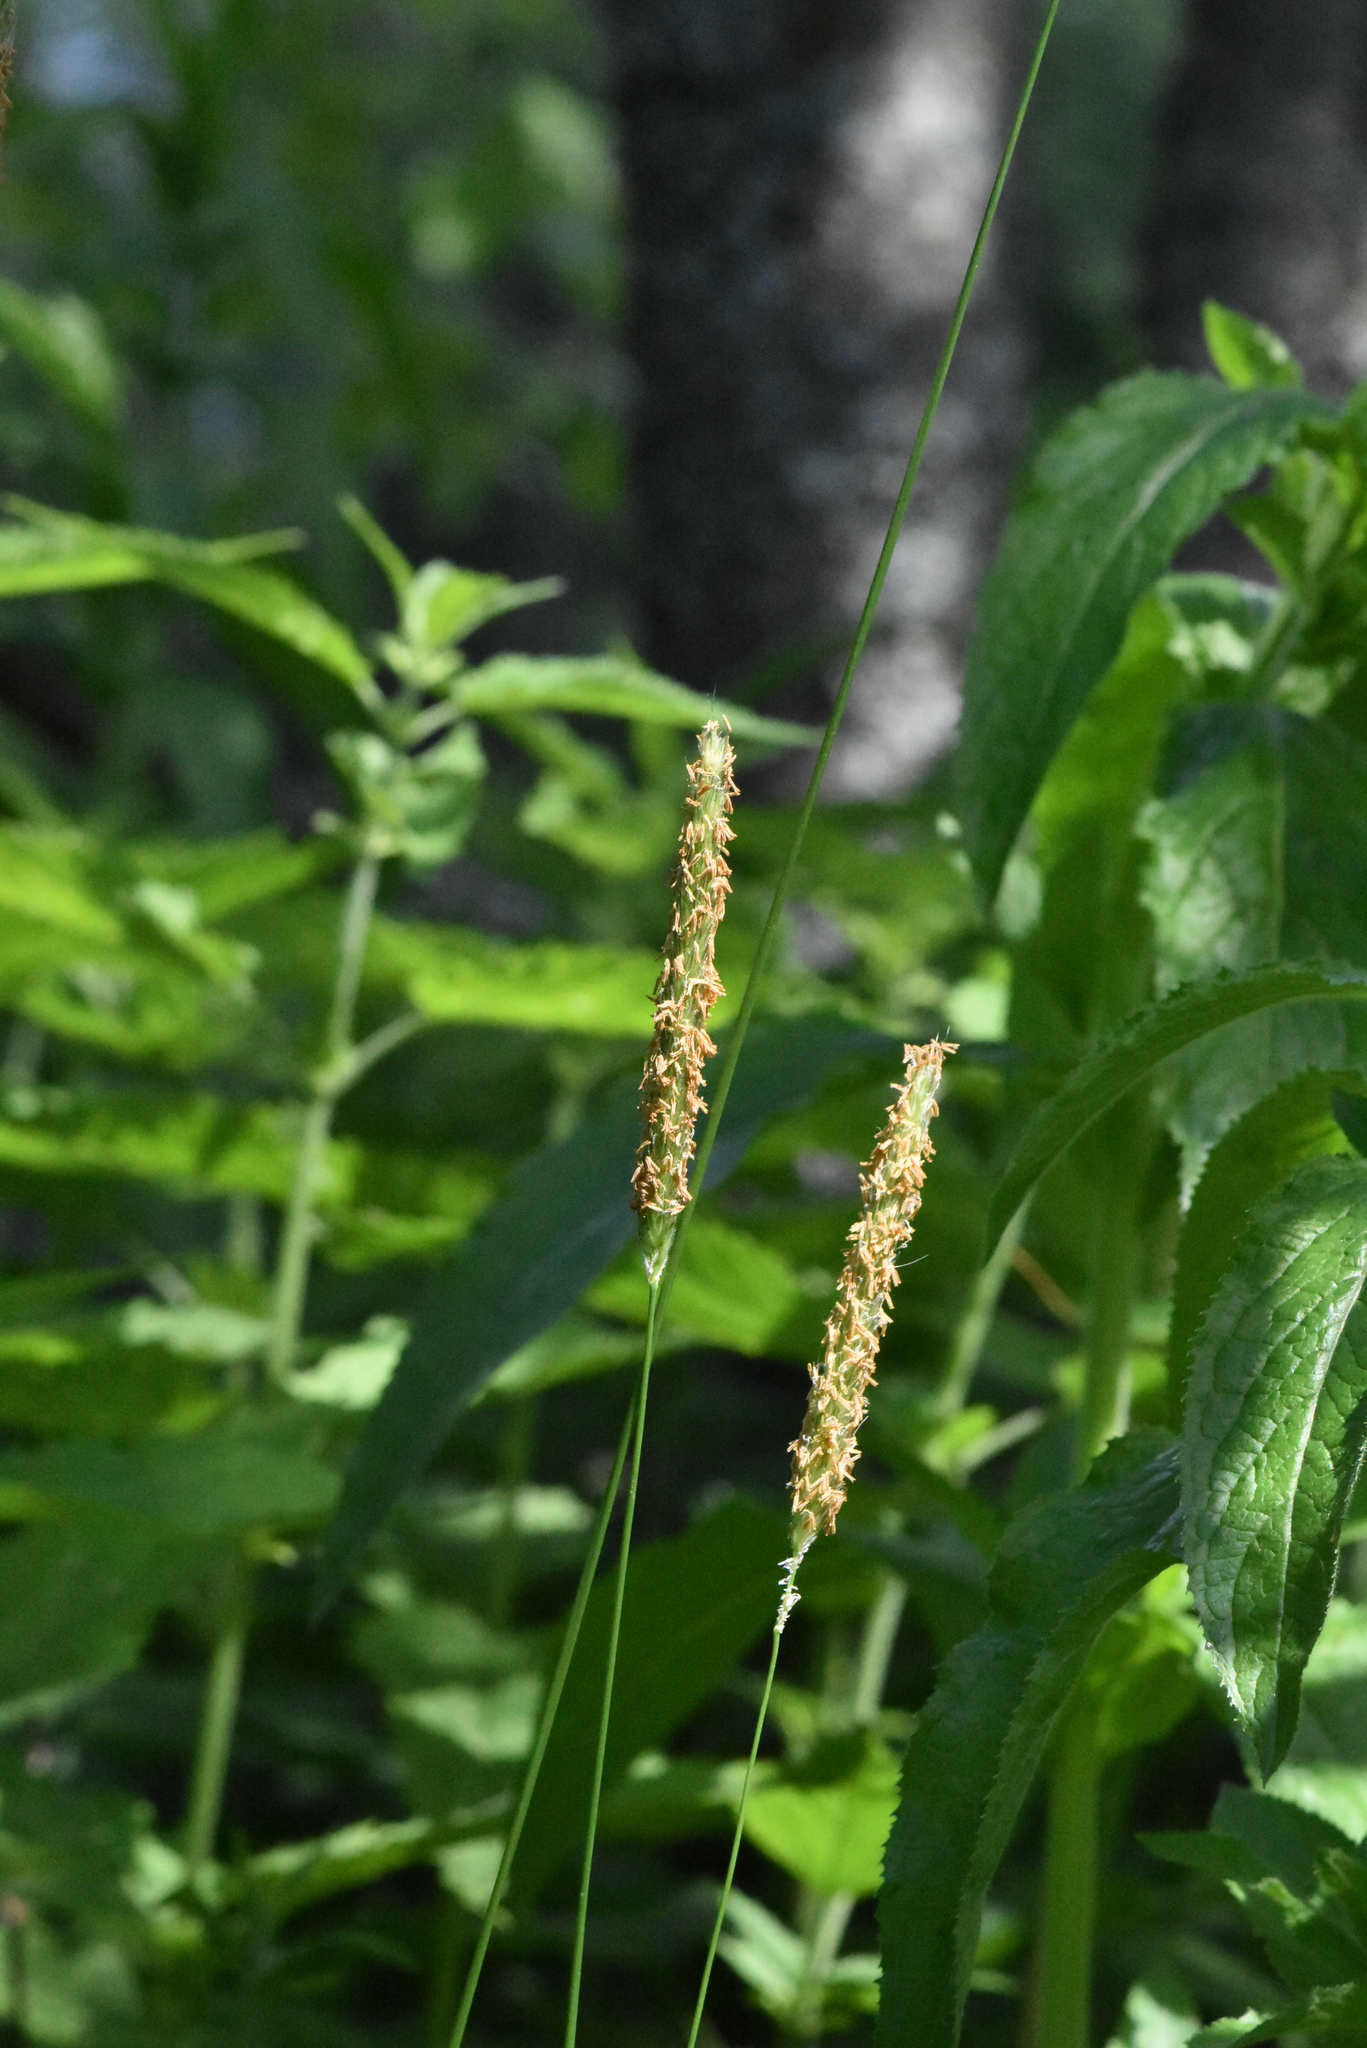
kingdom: Plantae
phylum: Tracheophyta
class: Liliopsida
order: Poales
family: Poaceae
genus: Alopecurus
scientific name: Alopecurus pratensis
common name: Meadow foxtail
